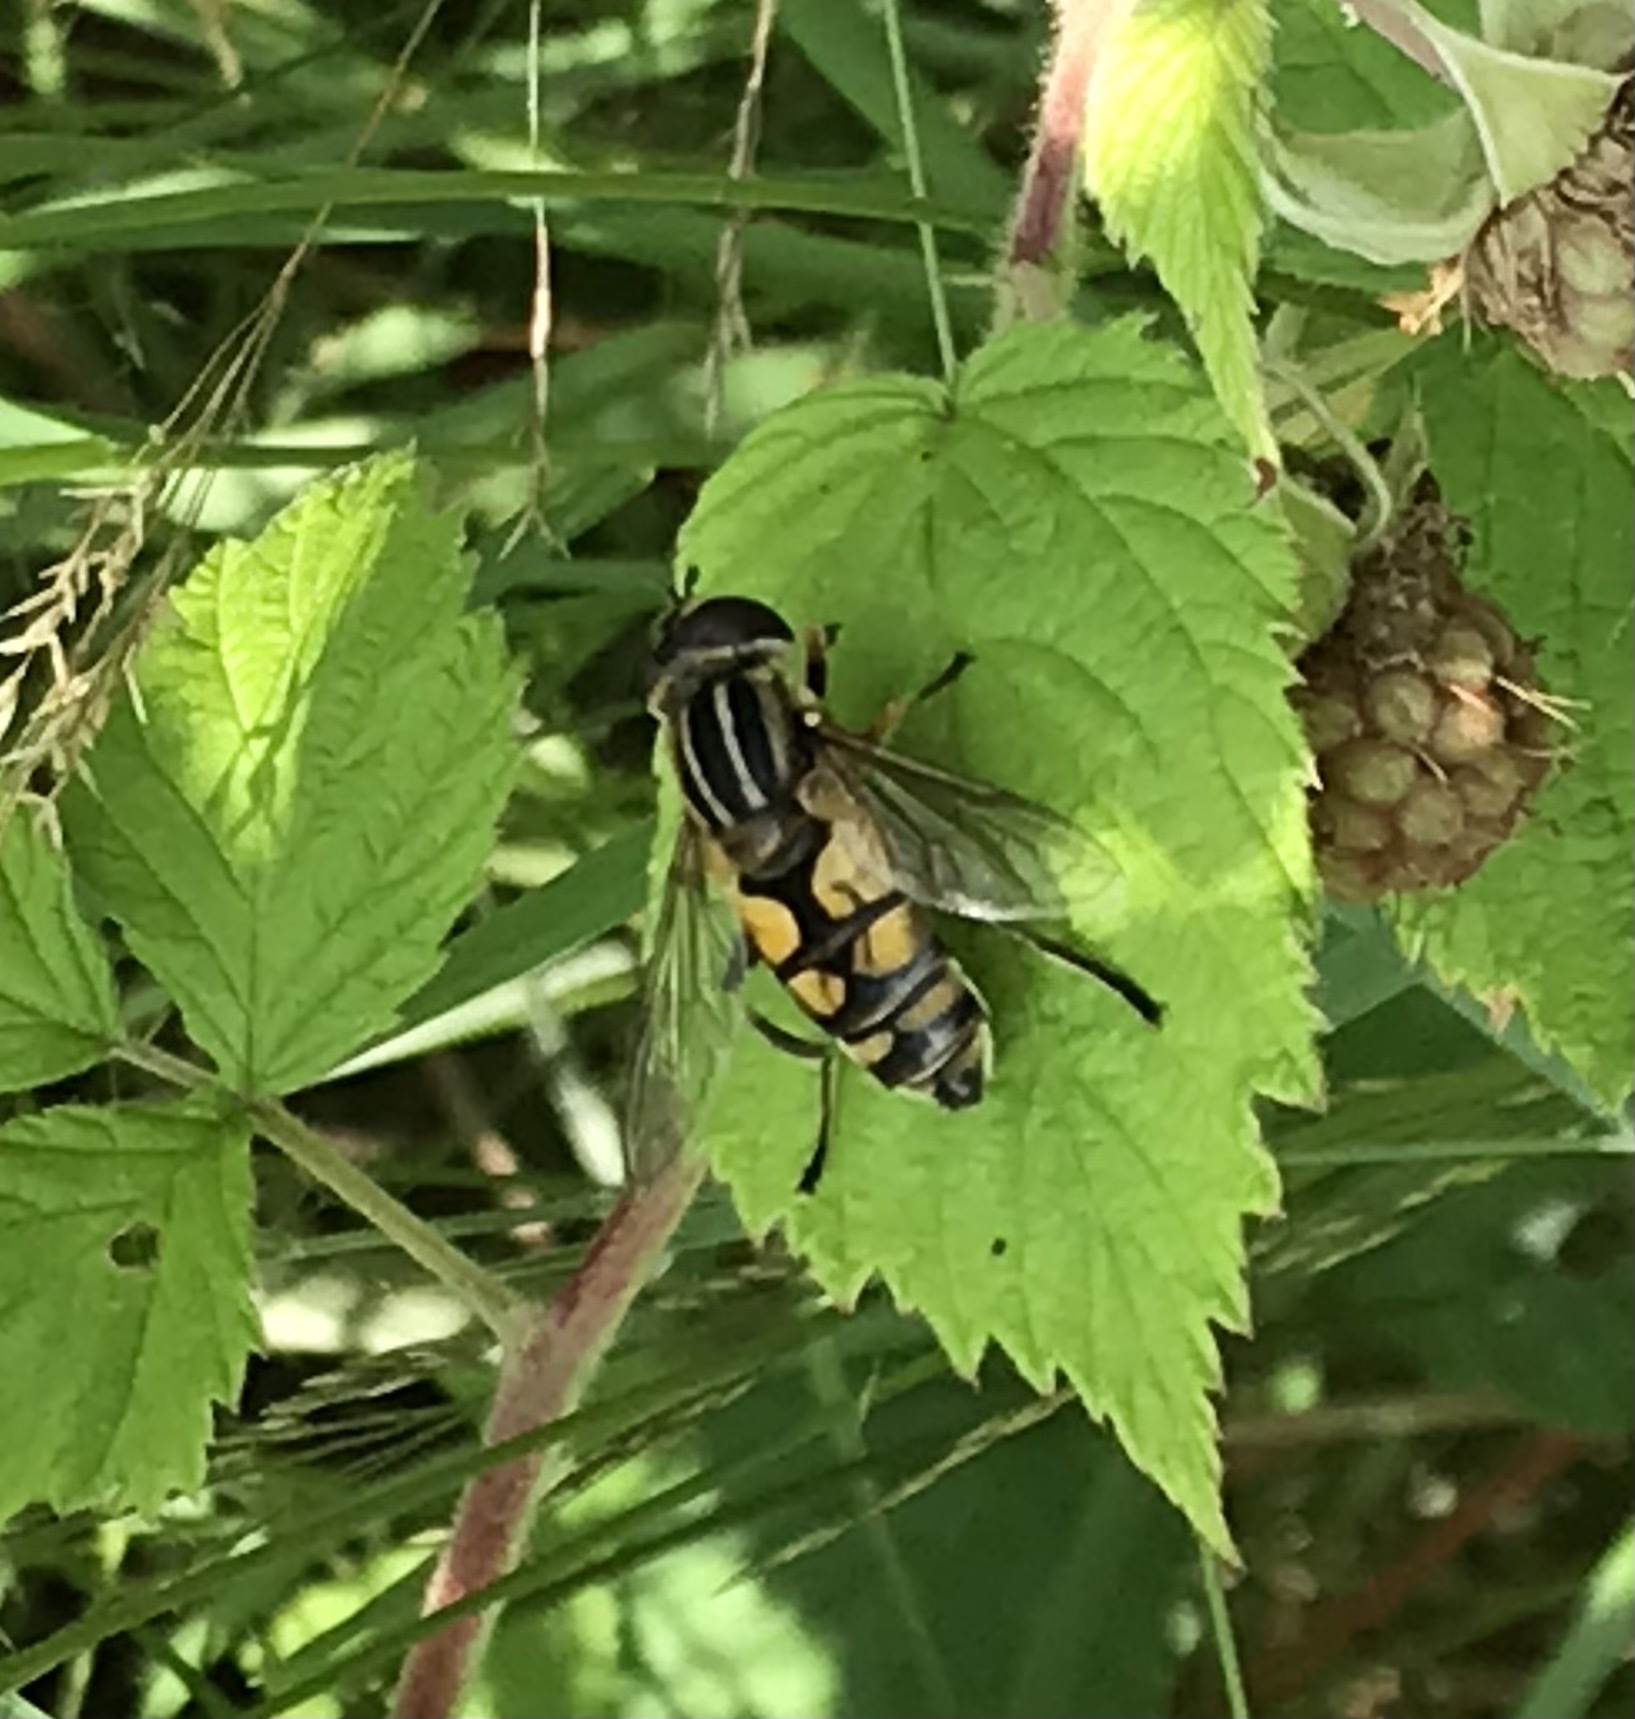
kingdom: Animalia
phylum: Arthropoda
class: Insecta
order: Diptera
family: Syrphidae
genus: Helophilus
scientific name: Helophilus hybridus
